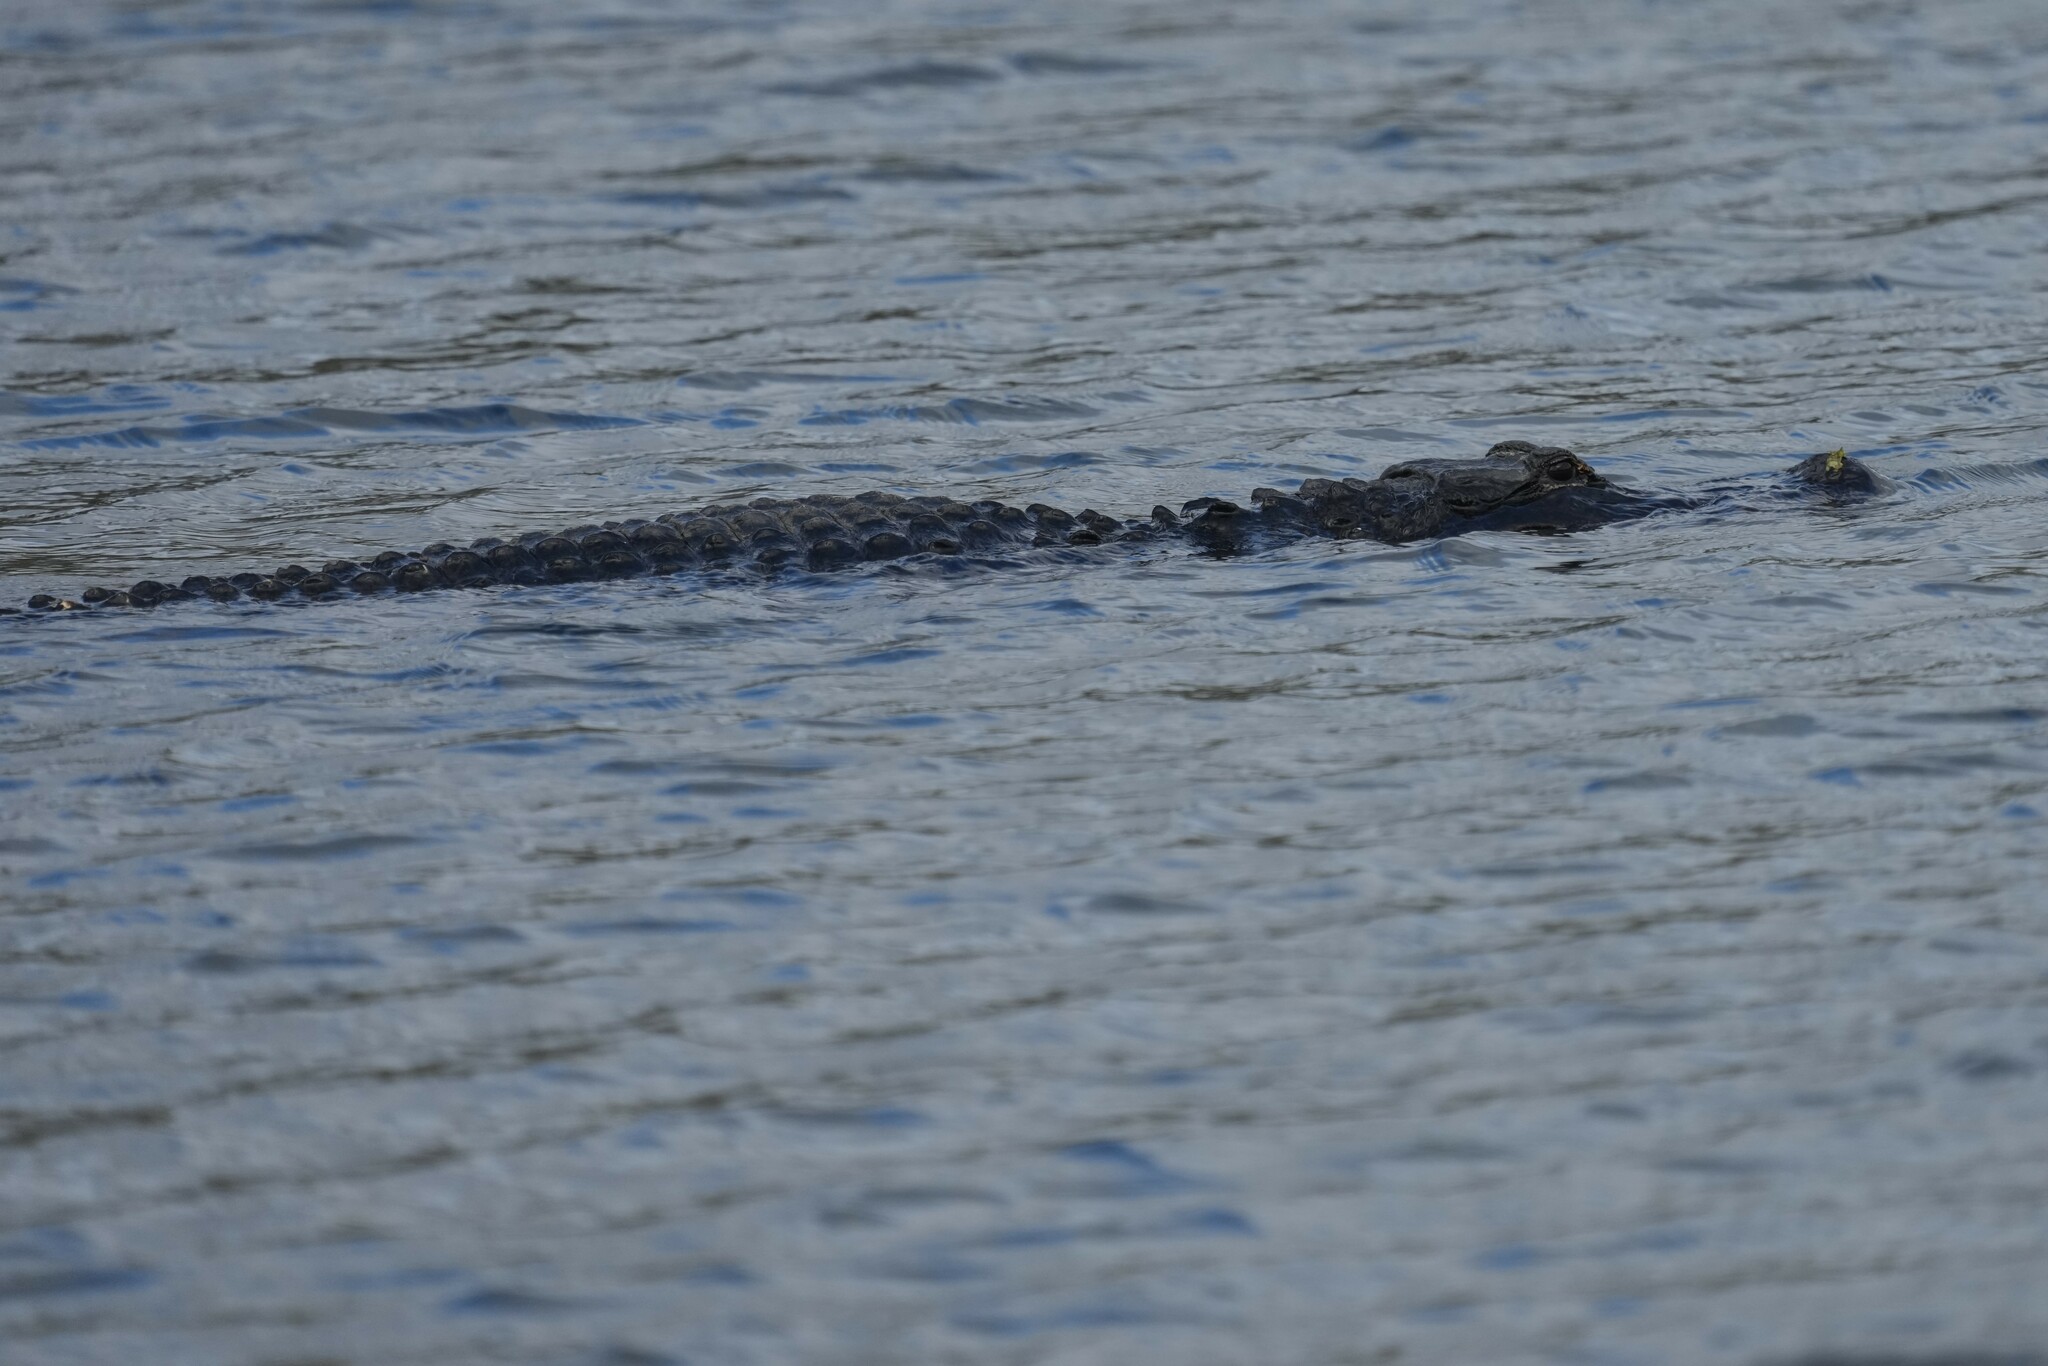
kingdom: Animalia
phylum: Chordata
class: Crocodylia
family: Alligatoridae
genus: Alligator
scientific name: Alligator mississippiensis
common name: American alligator
